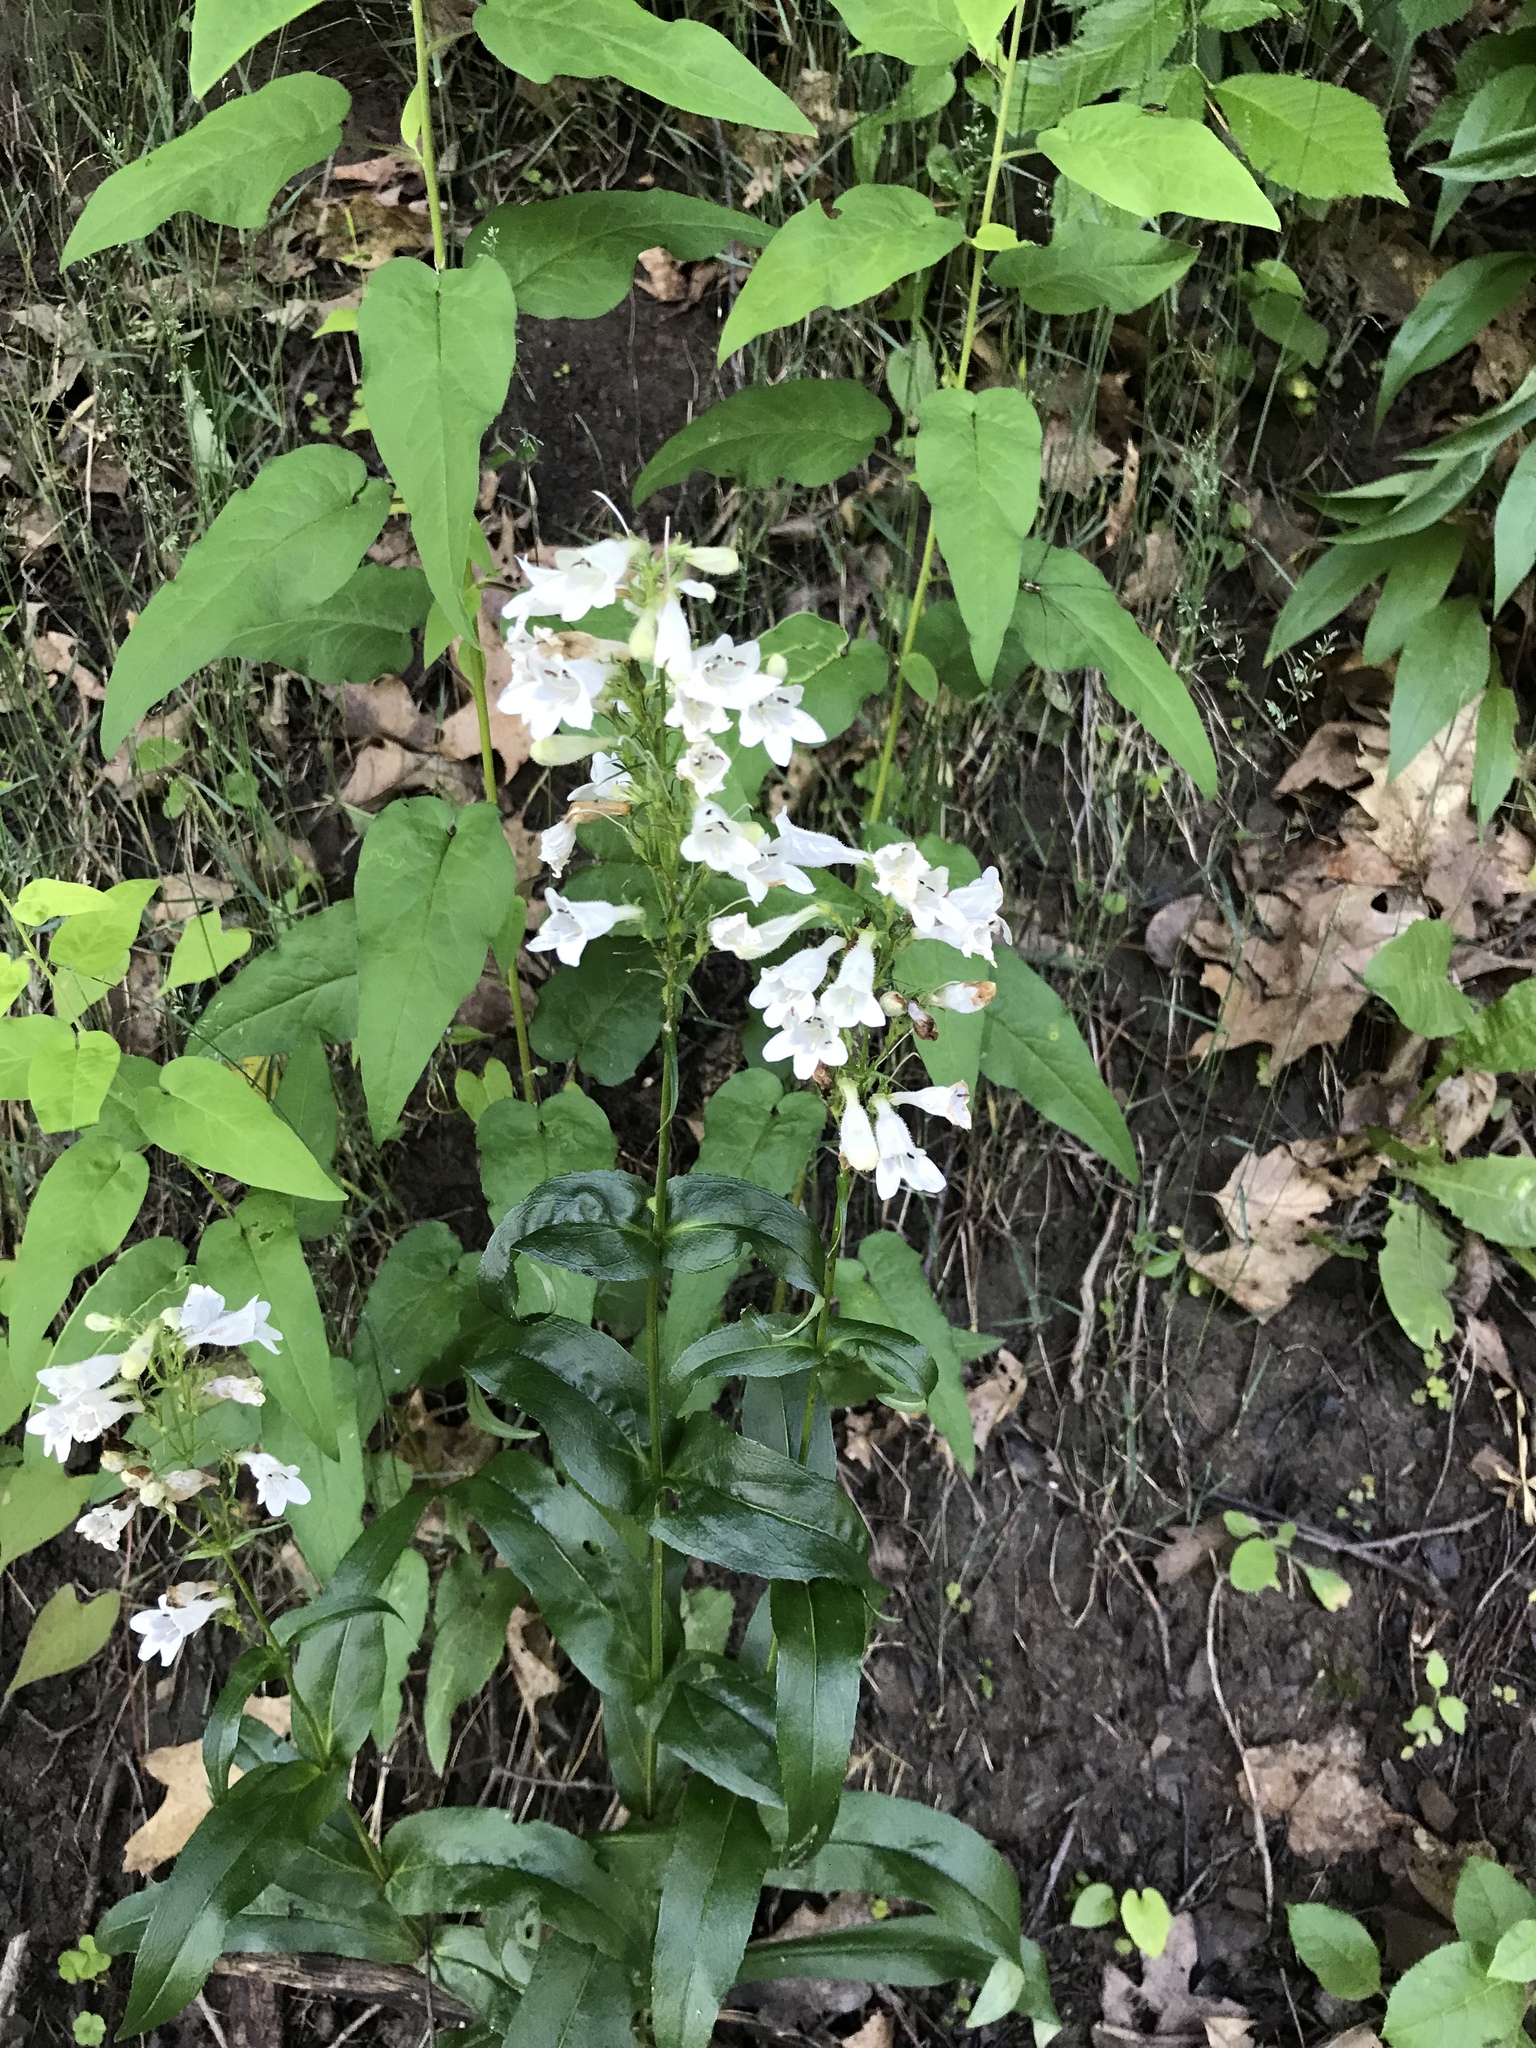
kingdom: Plantae
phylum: Tracheophyta
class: Magnoliopsida
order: Lamiales
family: Plantaginaceae
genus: Penstemon
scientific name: Penstemon digitalis
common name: Foxglove beardtongue
